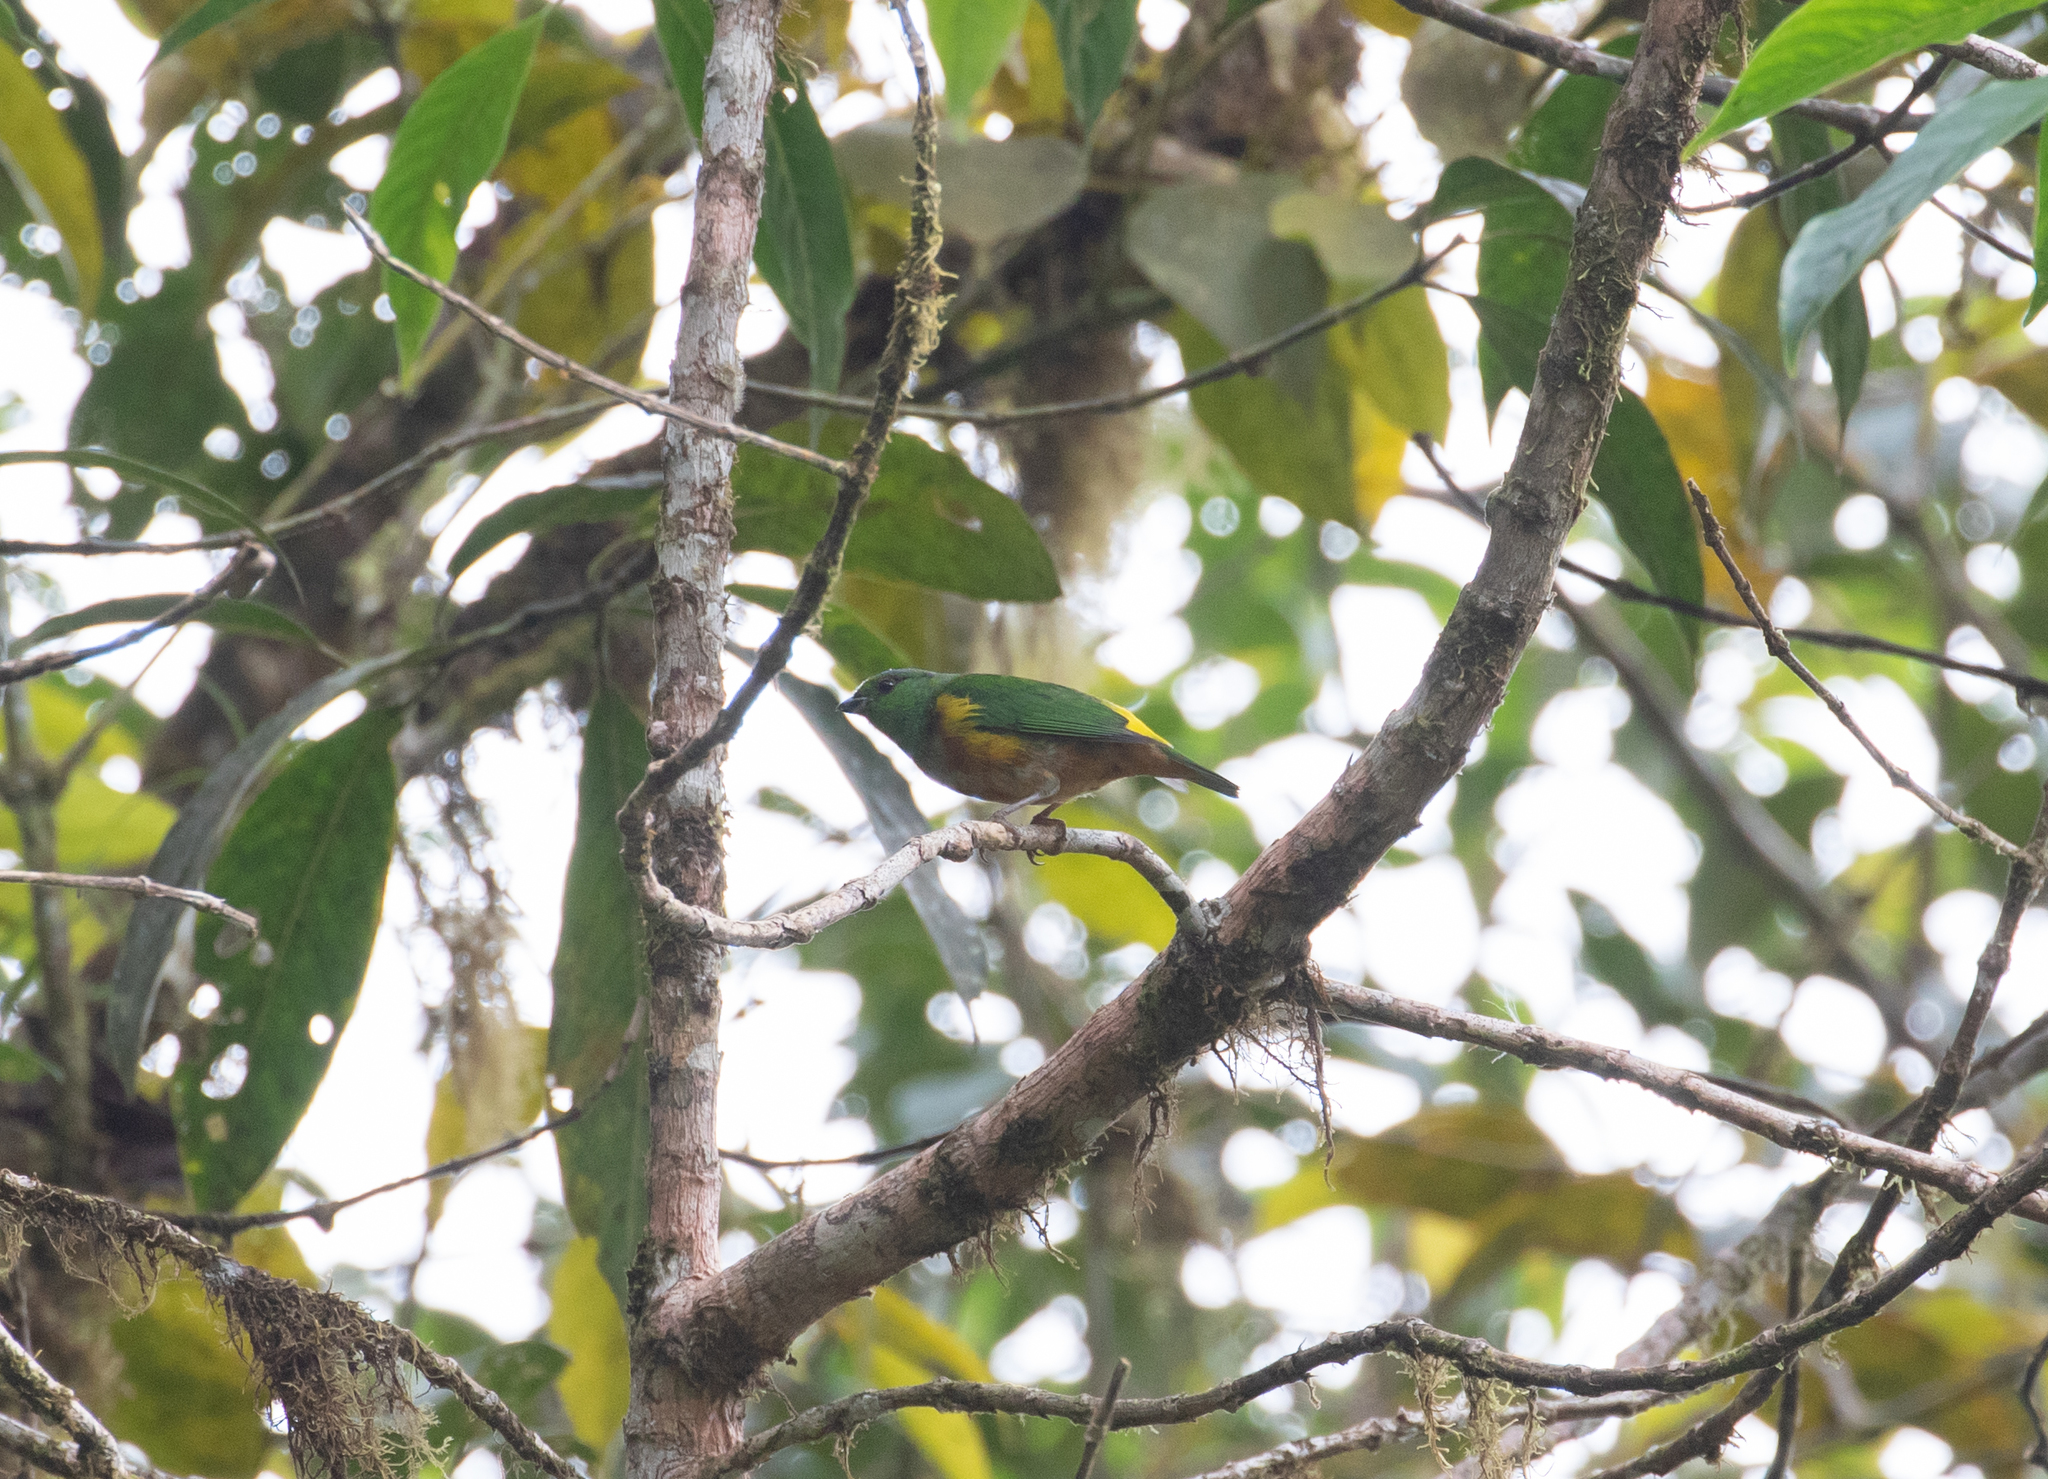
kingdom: Animalia
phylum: Chordata
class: Aves
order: Passeriformes
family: Fringillidae
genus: Chlorophonia
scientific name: Chlorophonia pyrrhophrys
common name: Chestnut-breasted chlorophonia
